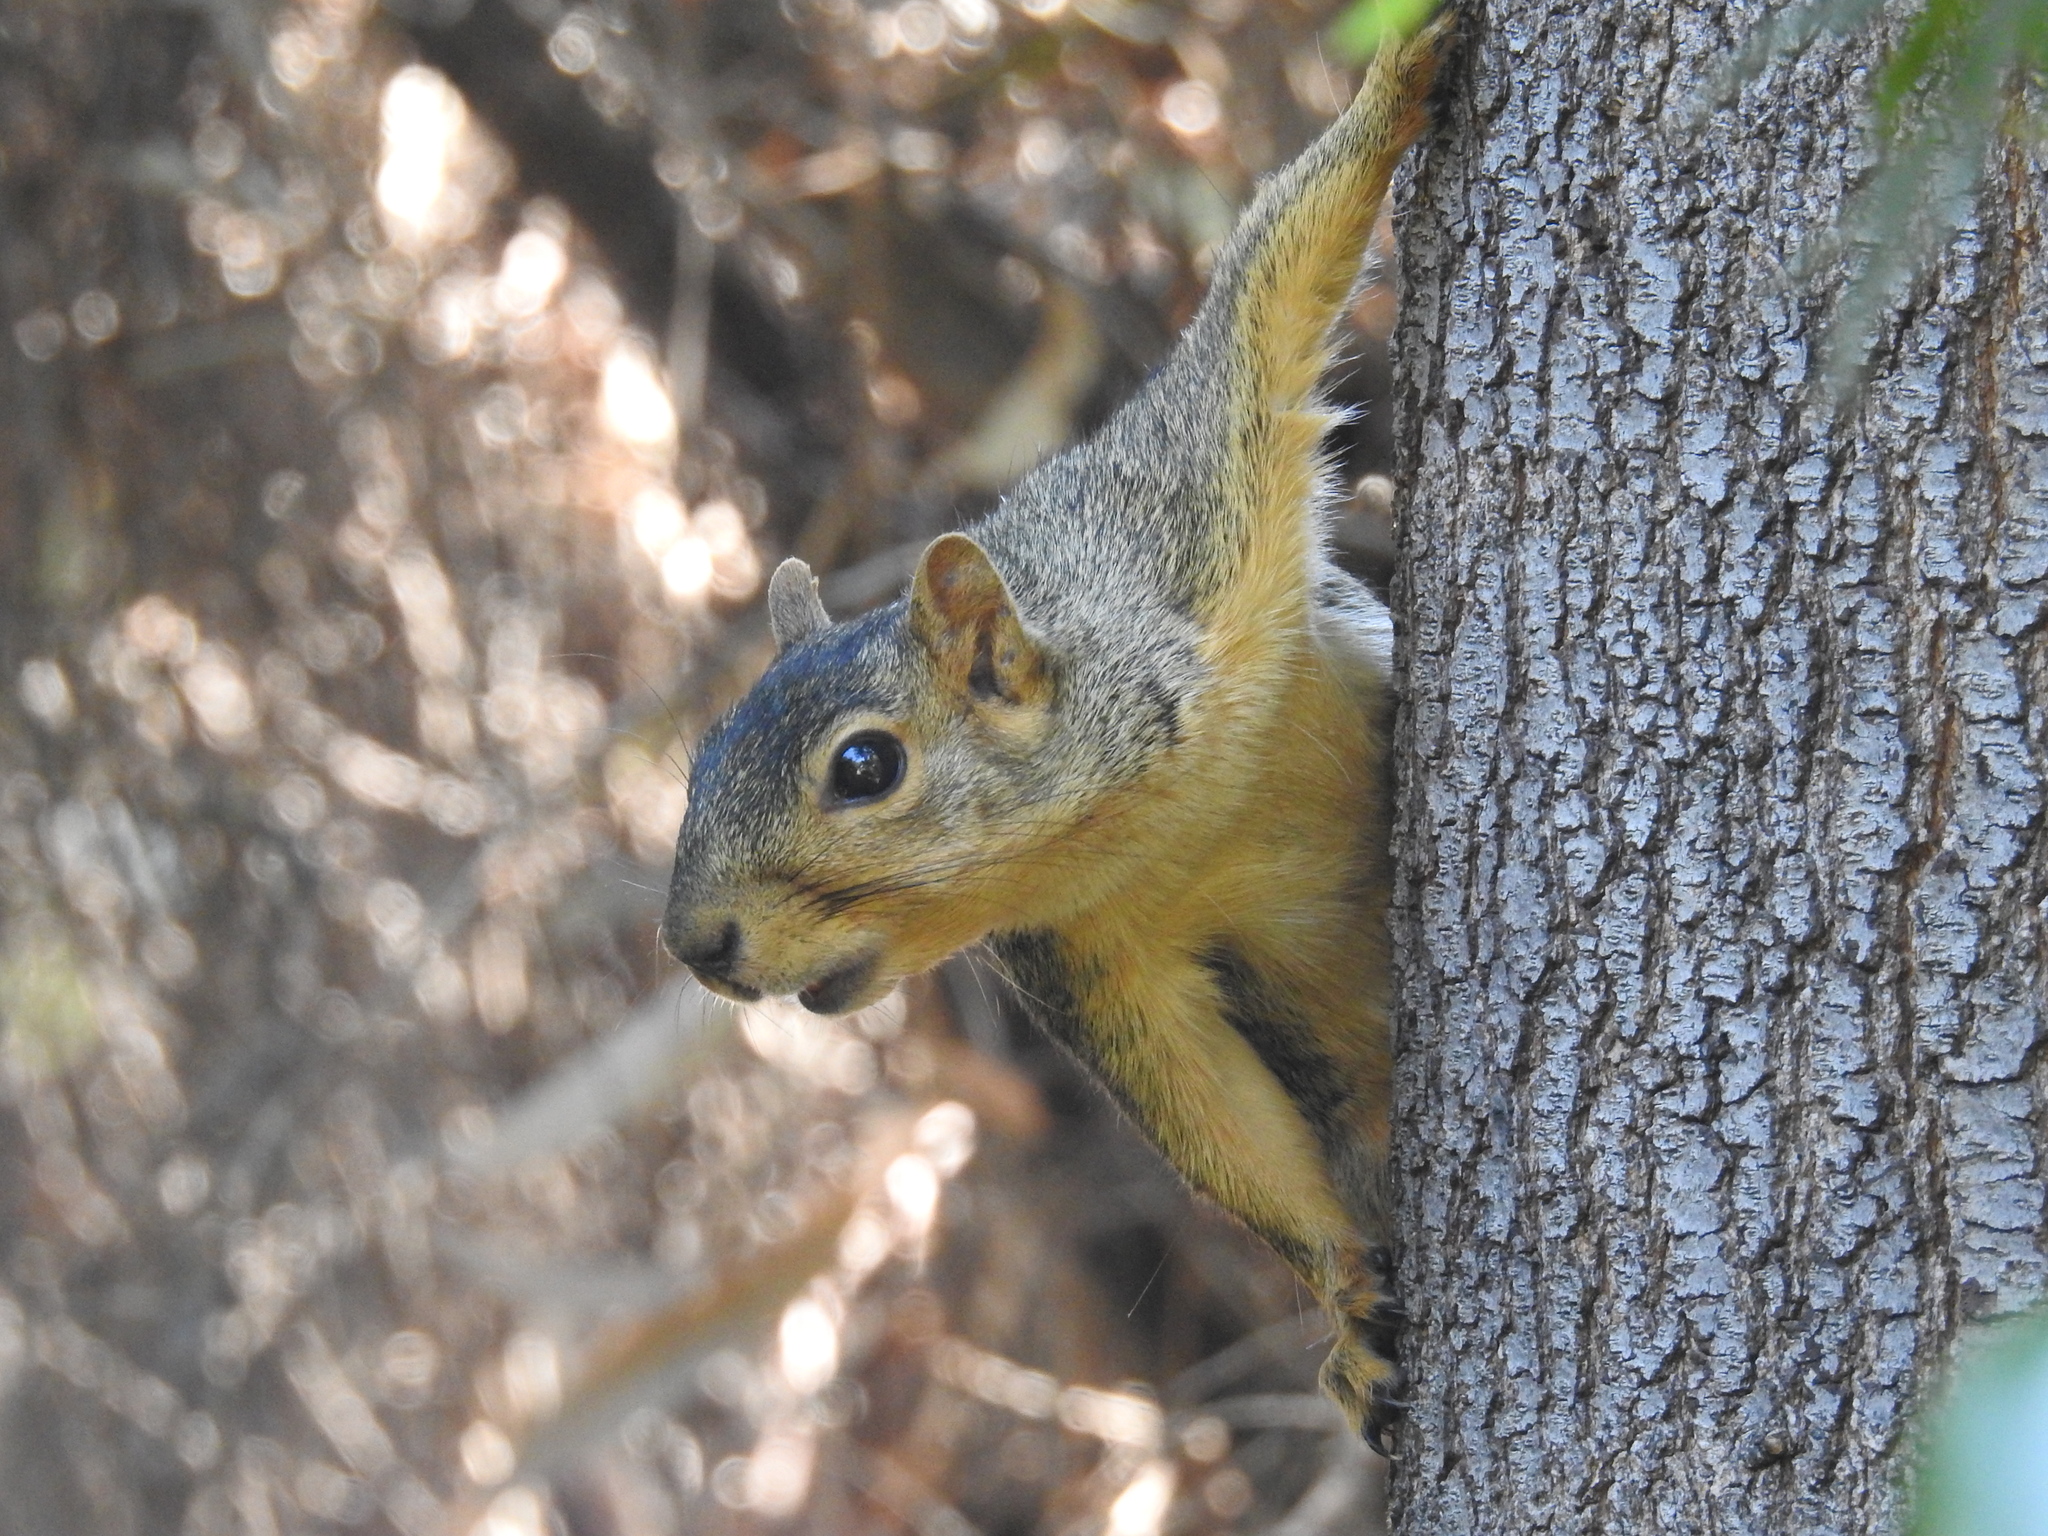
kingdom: Animalia
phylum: Chordata
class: Mammalia
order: Rodentia
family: Sciuridae
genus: Sciurus
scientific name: Sciurus niger
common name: Fox squirrel
